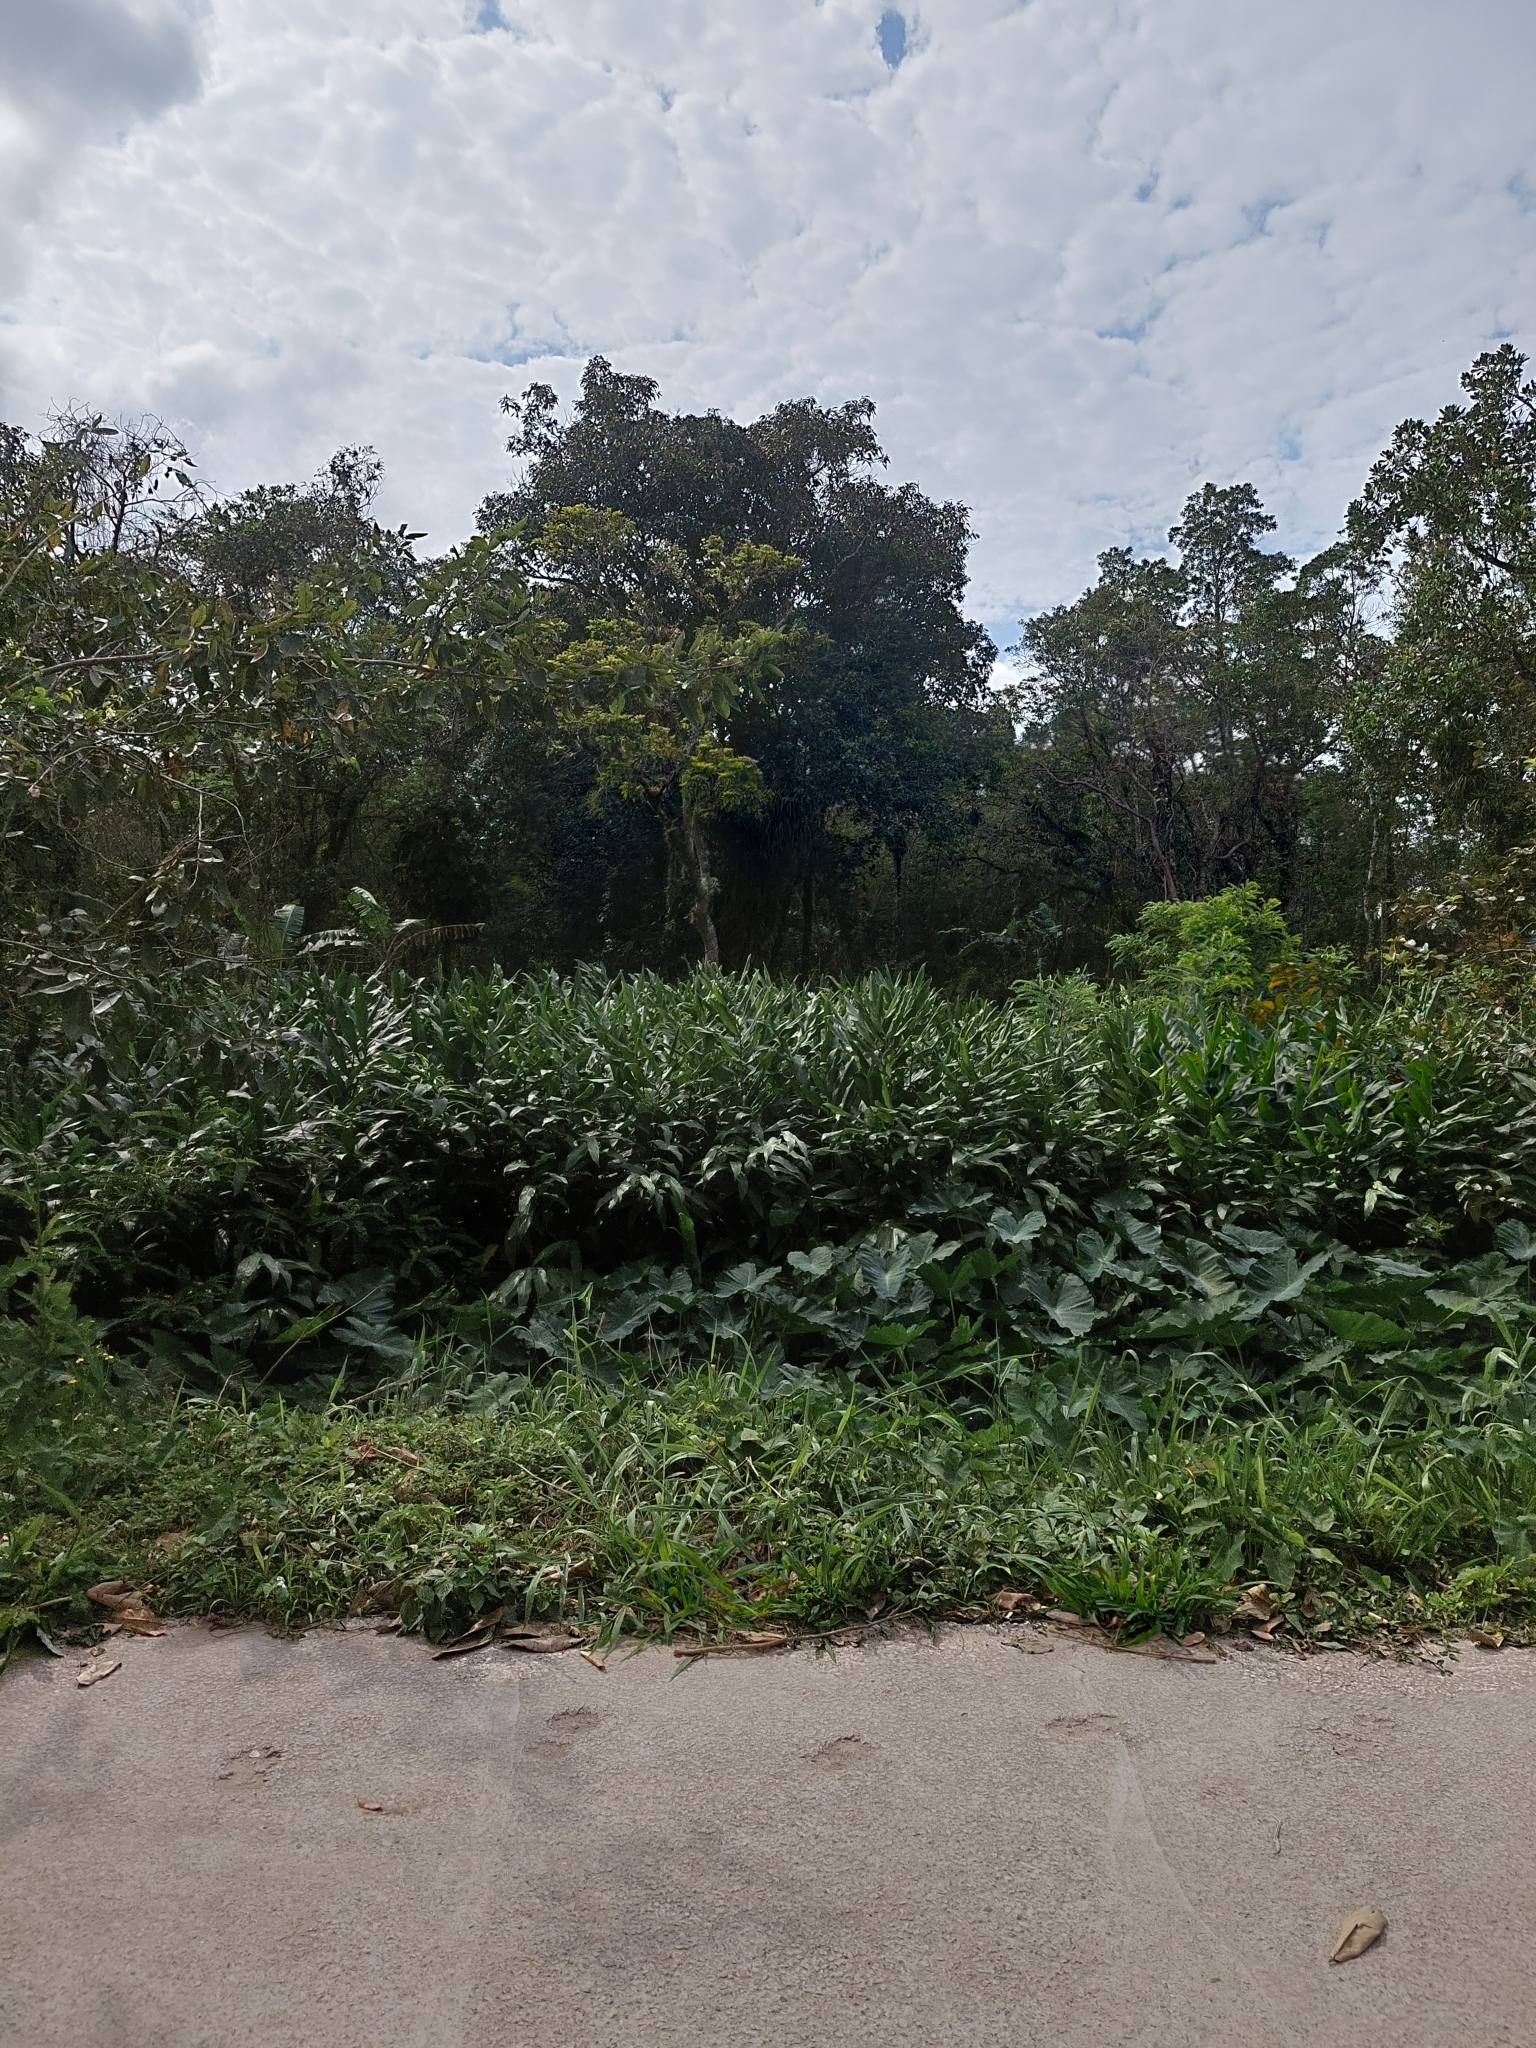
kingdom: Plantae
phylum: Tracheophyta
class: Liliopsida
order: Zingiberales
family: Zingiberaceae
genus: Hedychium
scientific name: Hedychium coronarium
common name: White garland-lily
